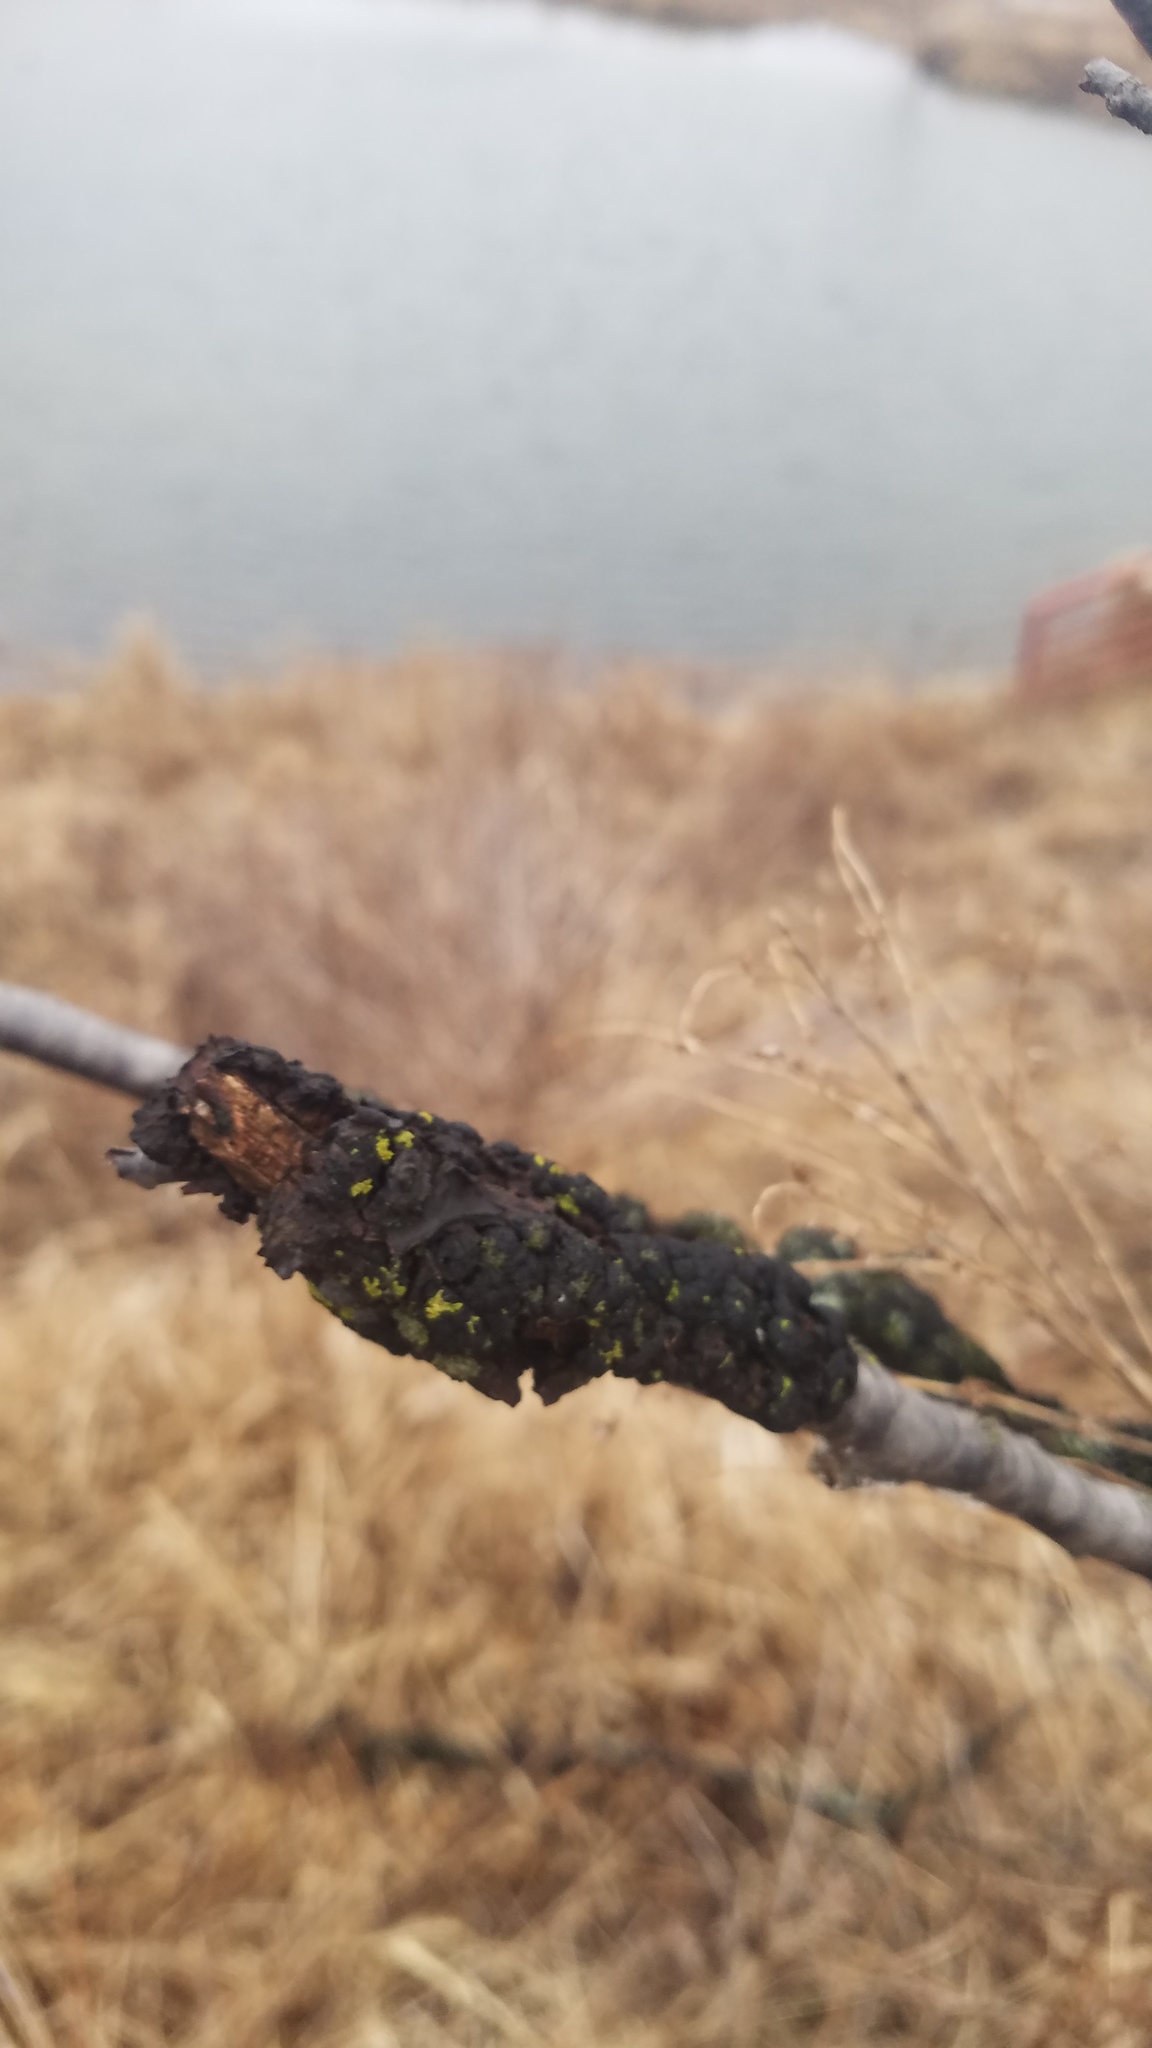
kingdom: Fungi
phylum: Ascomycota
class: Dothideomycetes
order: Venturiales
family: Venturiaceae
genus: Apiosporina
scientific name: Apiosporina morbosa
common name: Black knot
